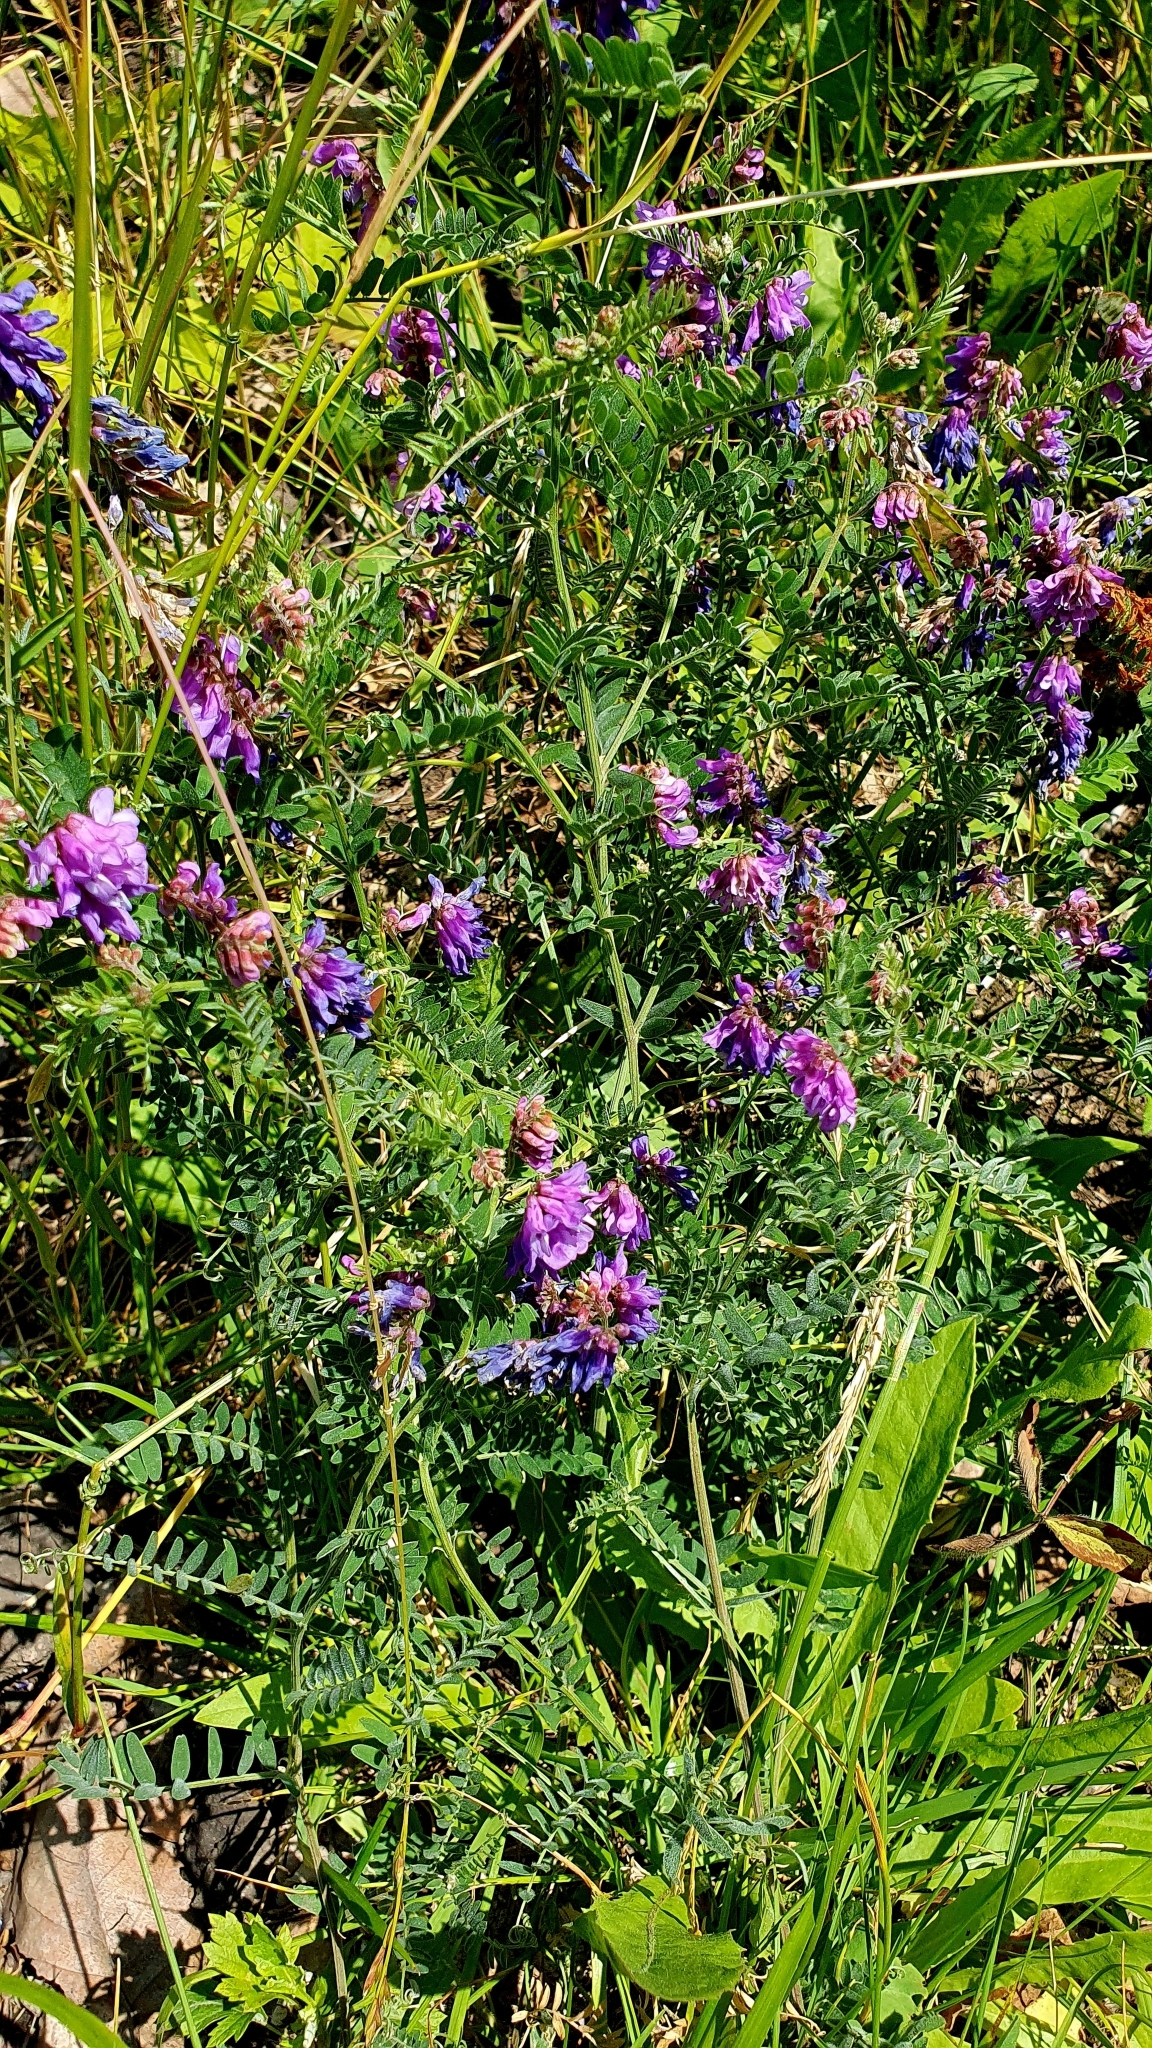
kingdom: Plantae
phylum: Tracheophyta
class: Magnoliopsida
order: Fabales
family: Fabaceae
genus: Vicia
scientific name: Vicia cracca
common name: Bird vetch
